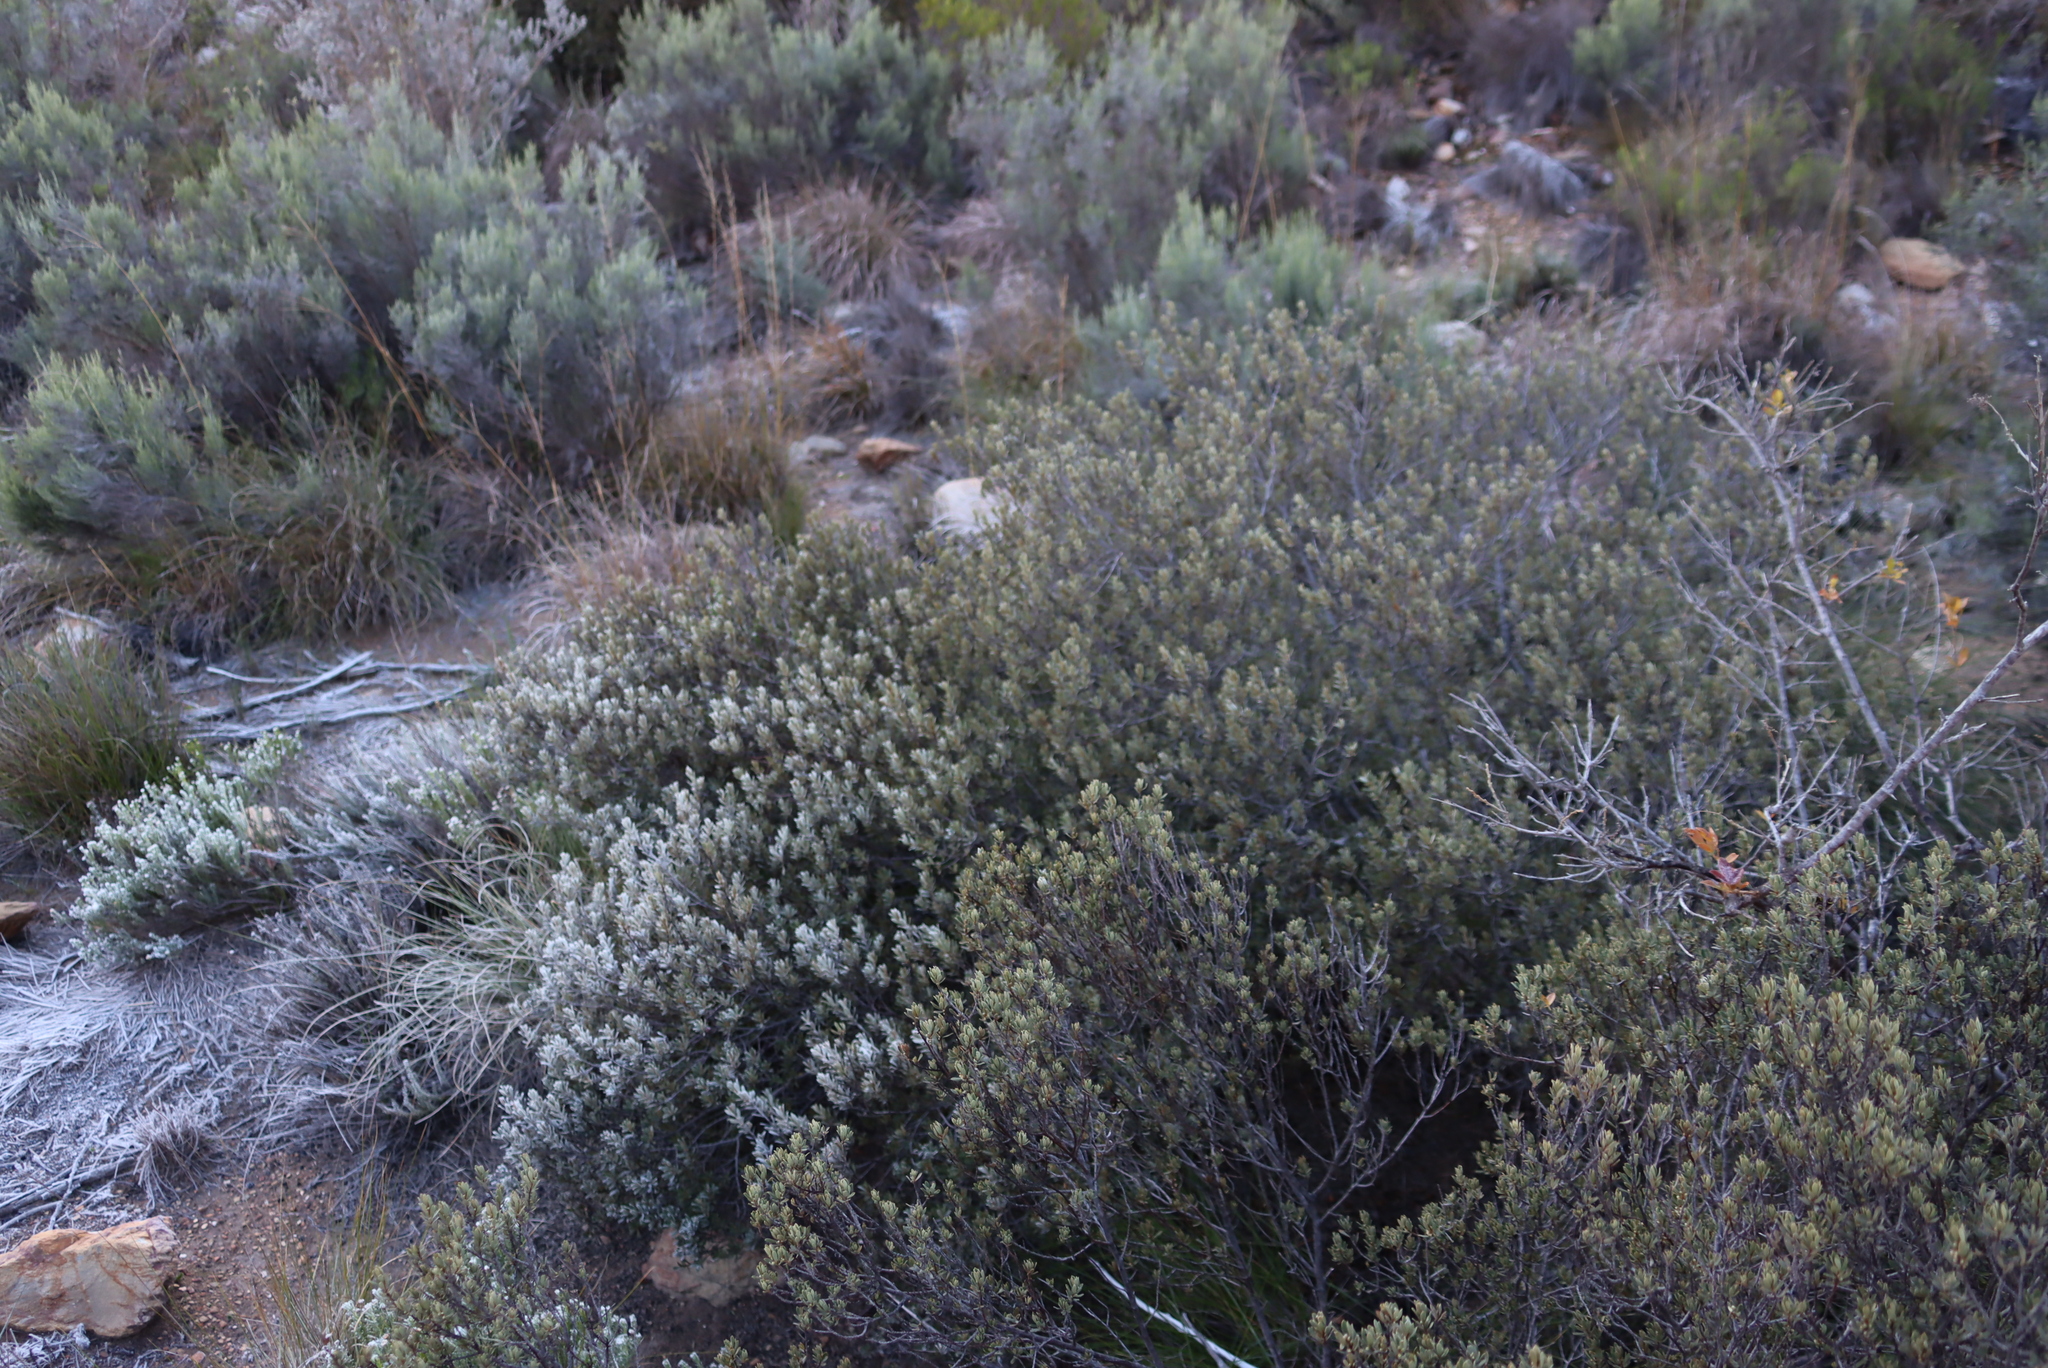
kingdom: Plantae
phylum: Tracheophyta
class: Magnoliopsida
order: Ericales
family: Ebenaceae
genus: Diospyros
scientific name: Diospyros pubescens
